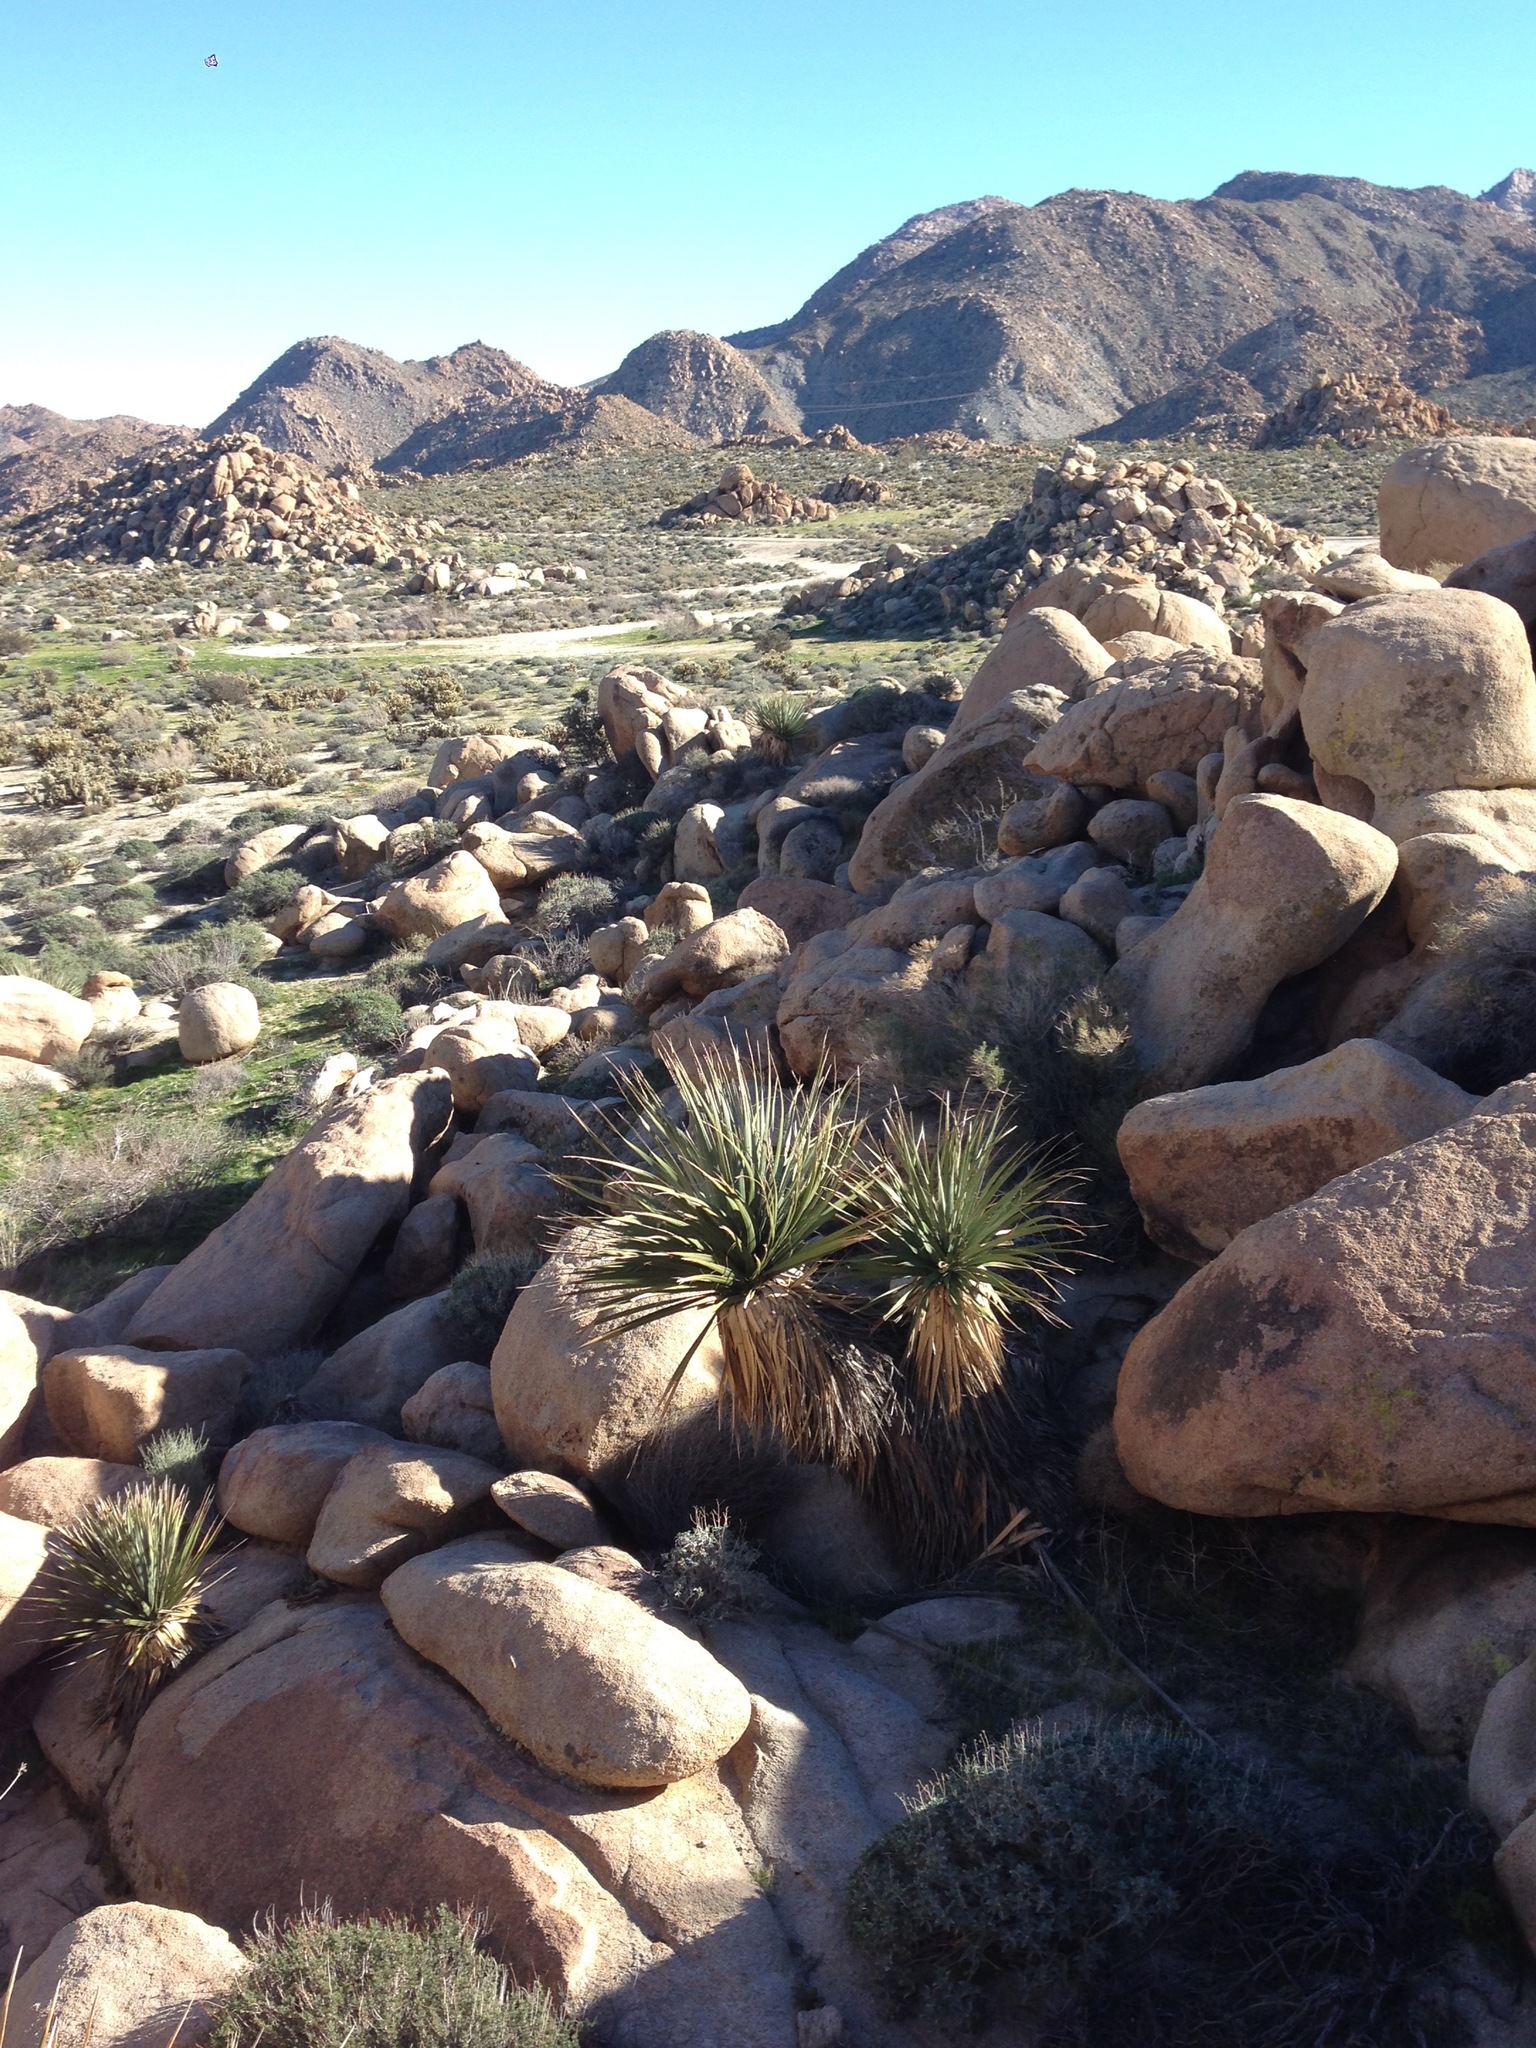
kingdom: Plantae
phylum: Tracheophyta
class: Liliopsida
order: Asparagales
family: Asparagaceae
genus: Nolina
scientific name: Nolina bigelovii
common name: Bigelow bear-grass
